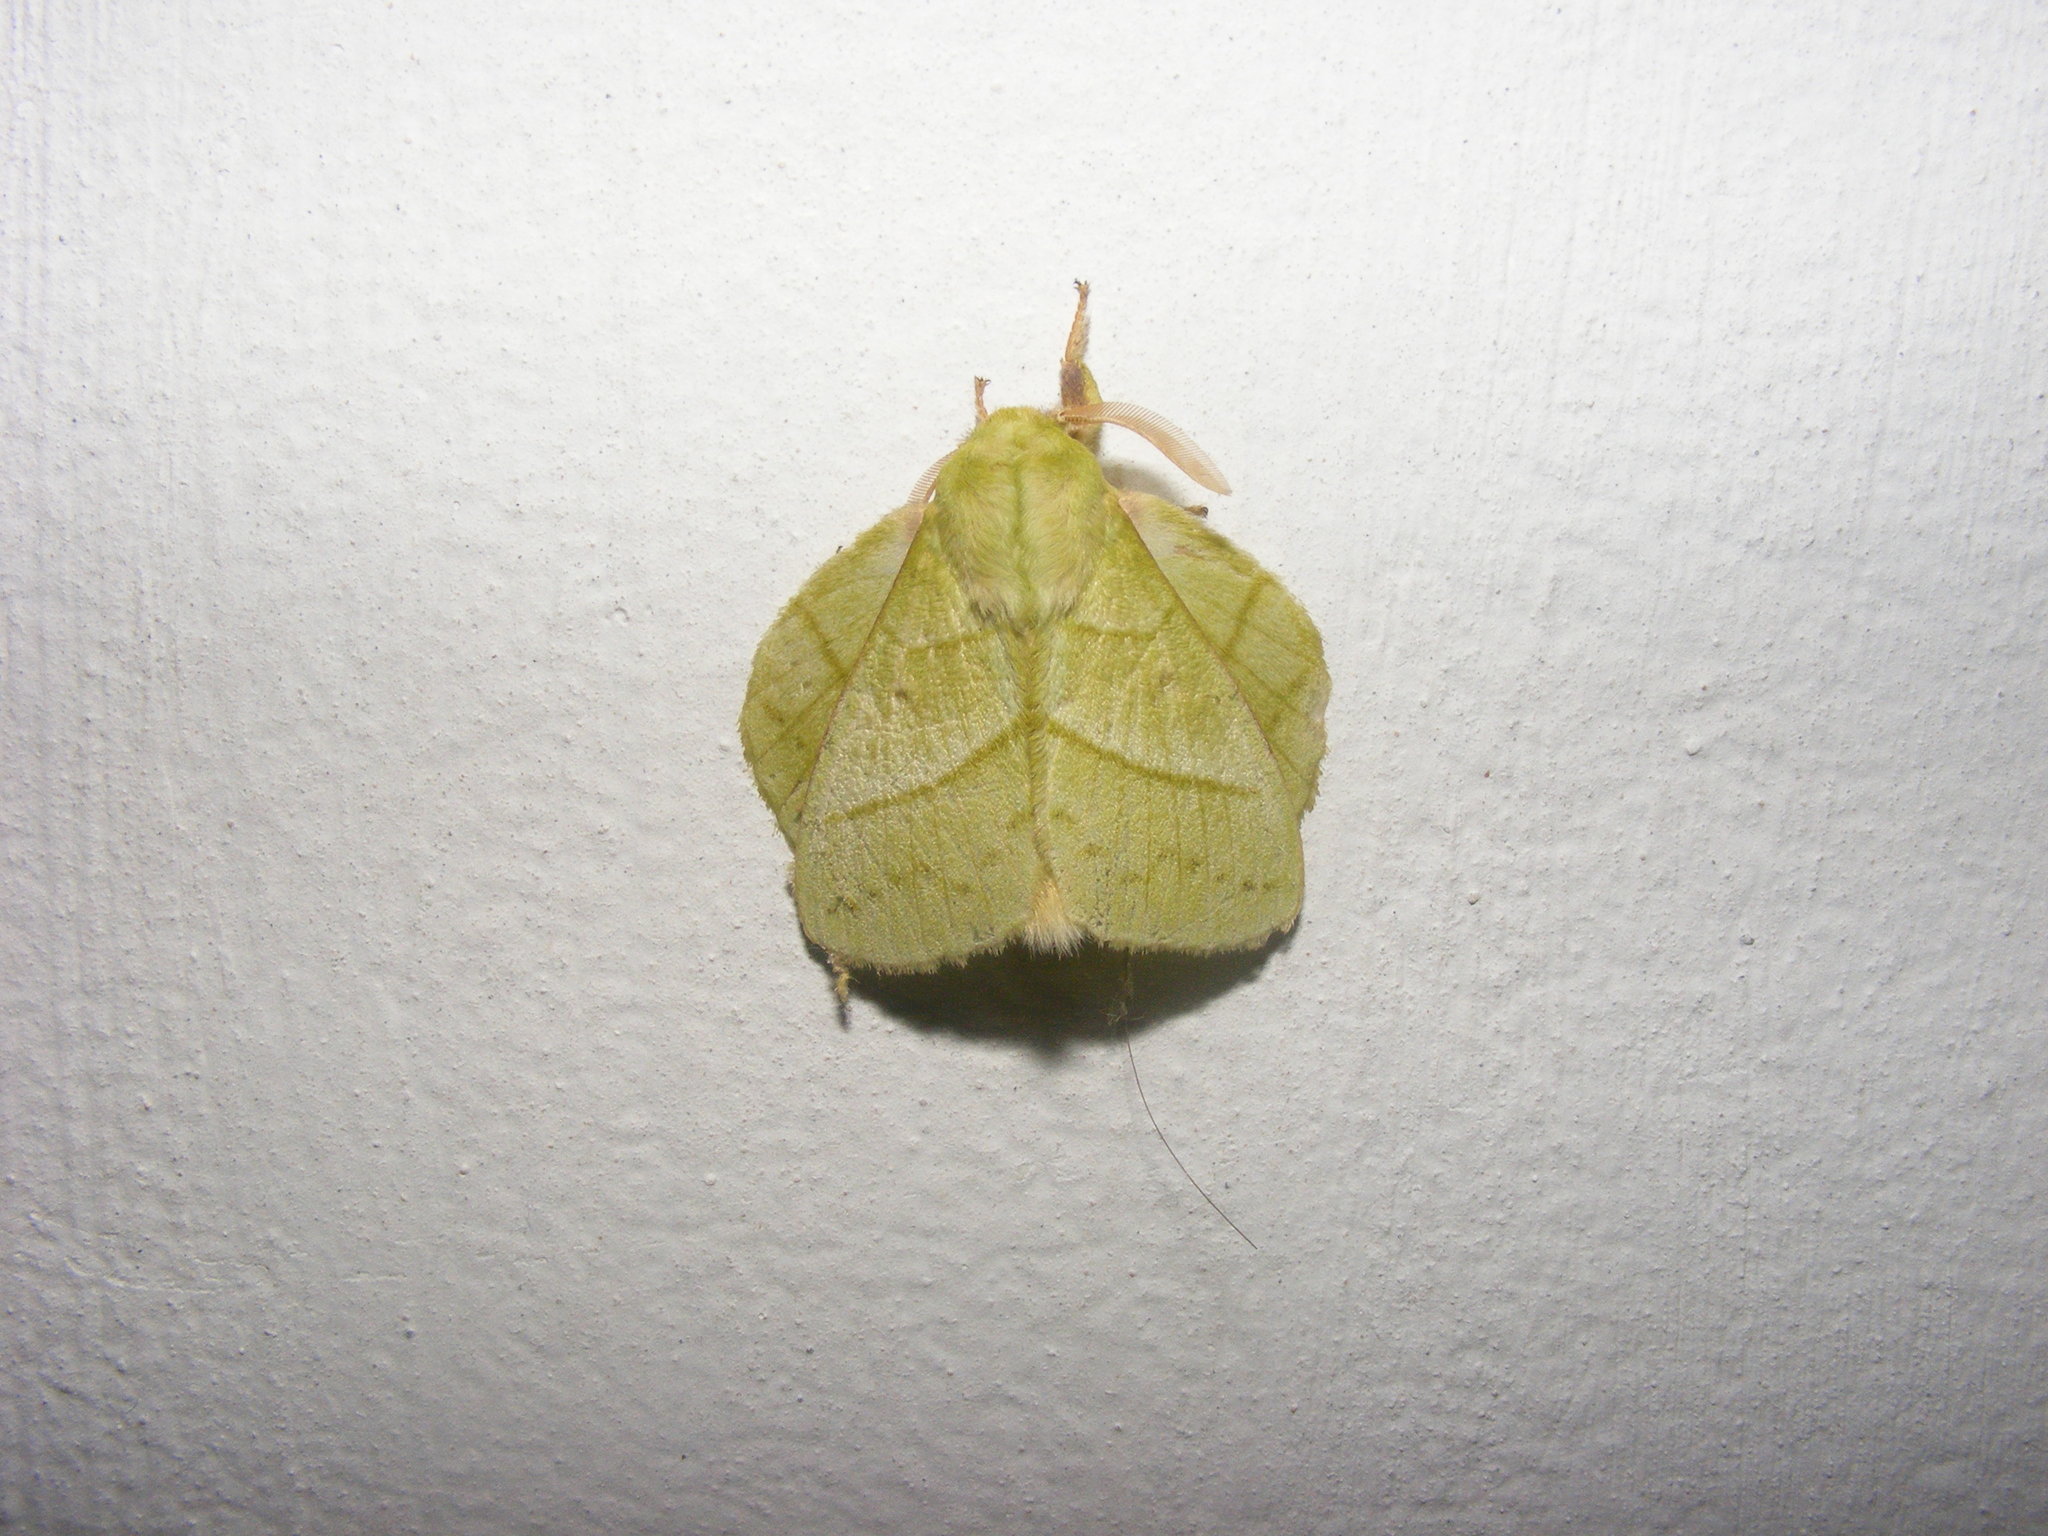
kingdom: Animalia
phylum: Arthropoda
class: Insecta
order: Lepidoptera
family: Lasiocampidae
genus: Trabala
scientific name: Trabala vishnou
